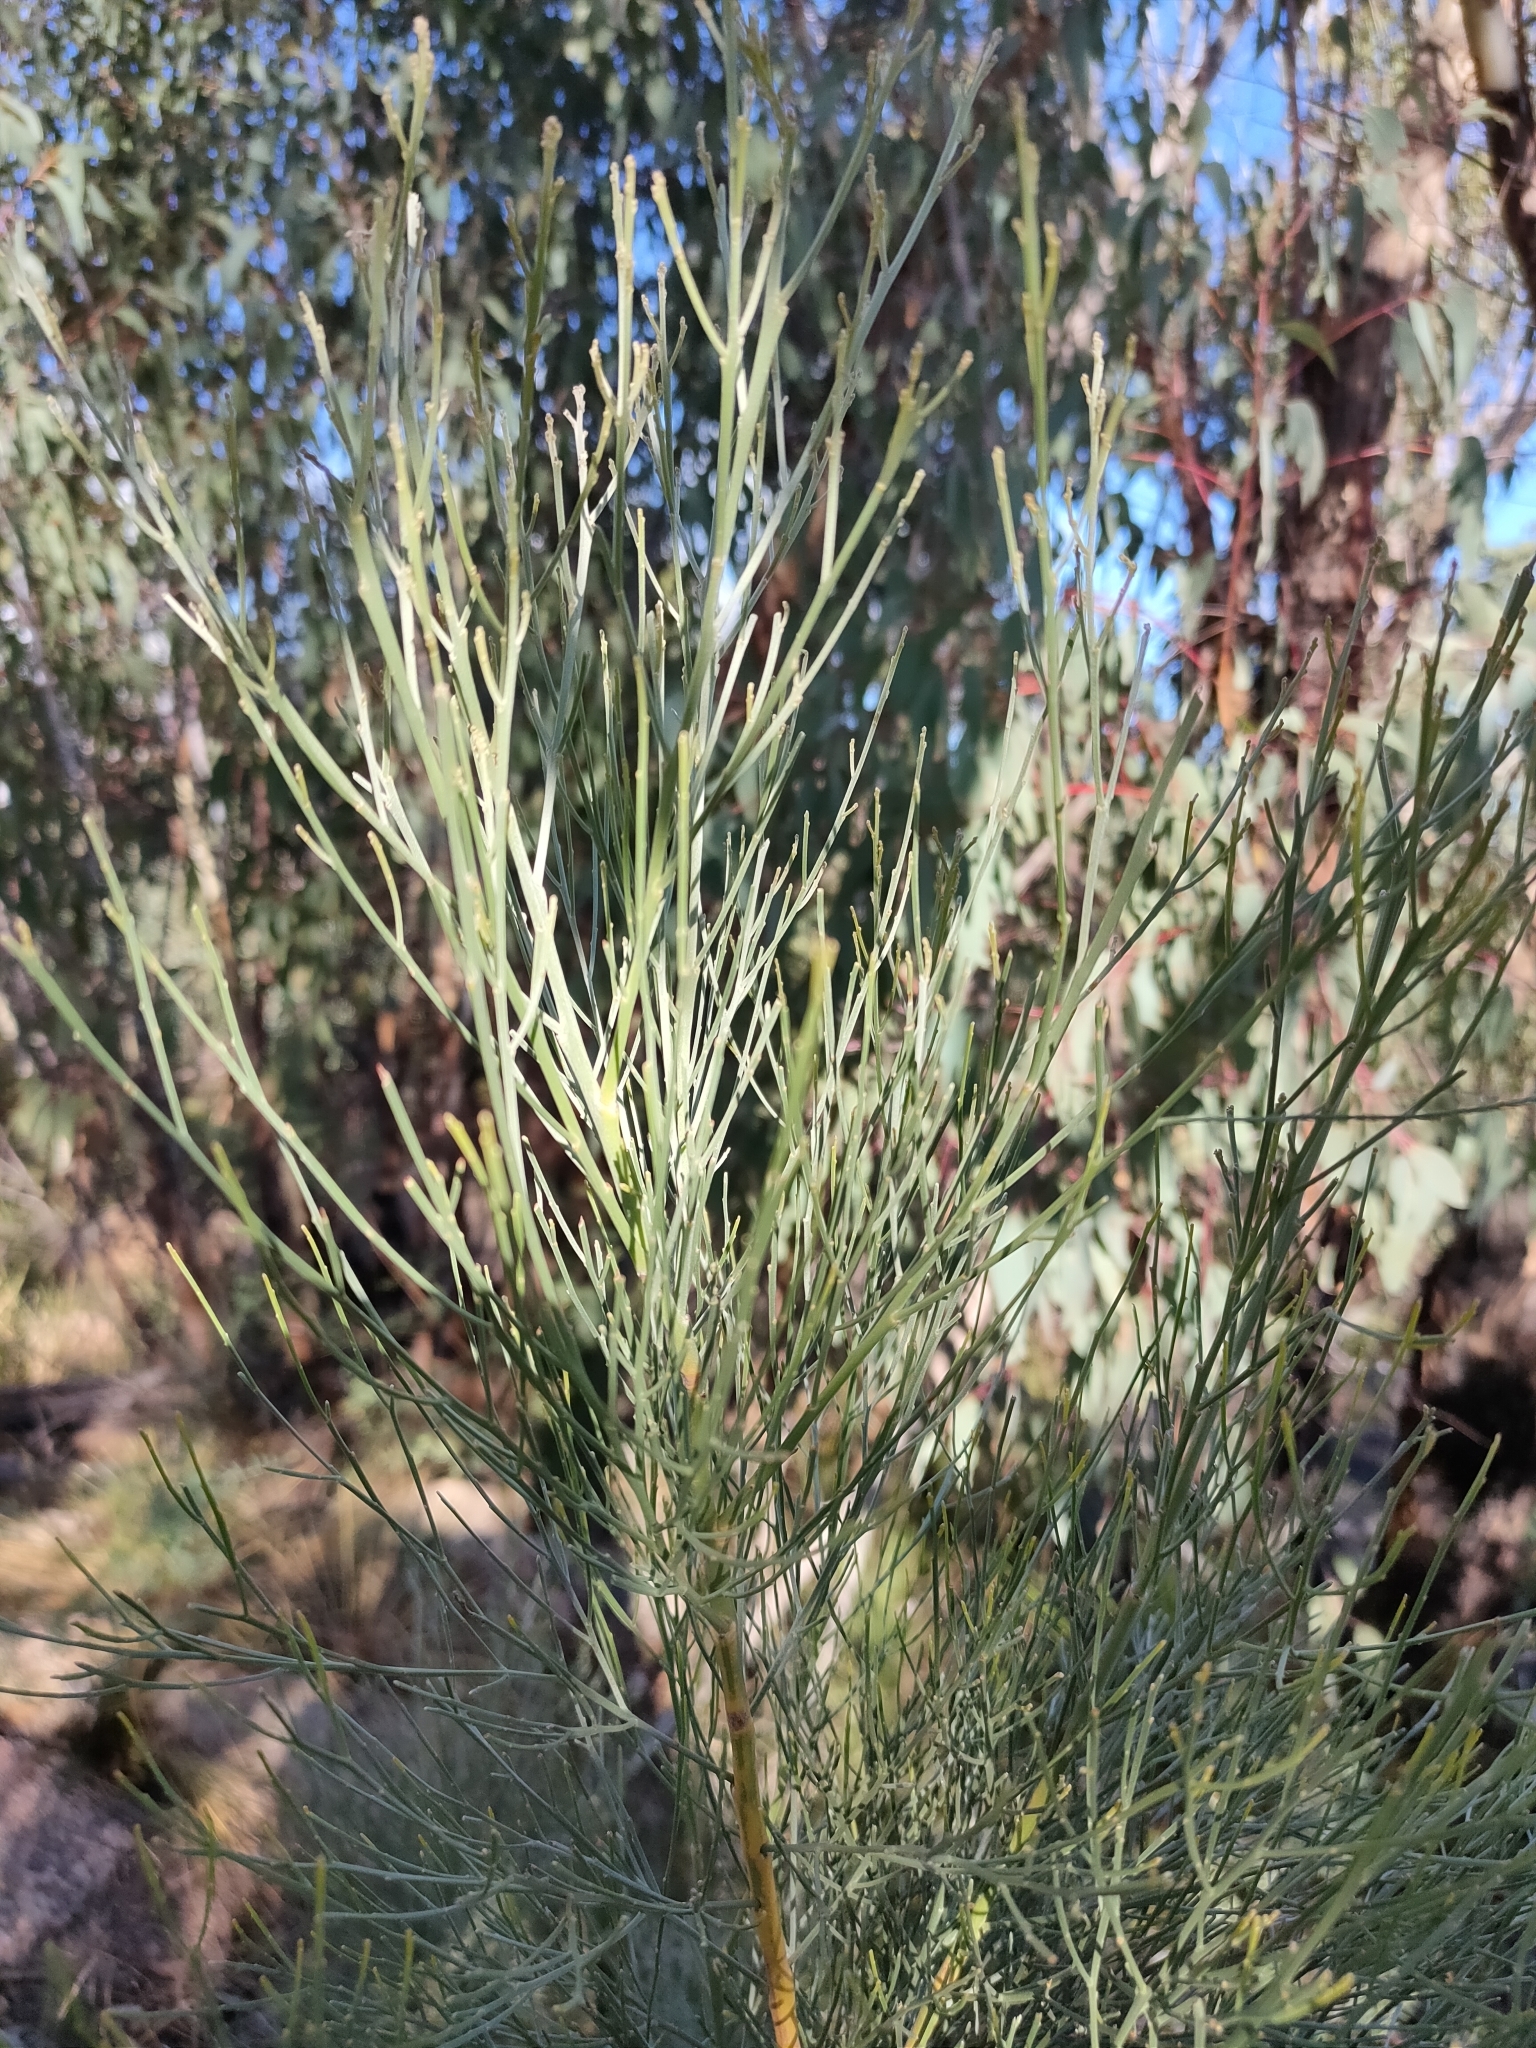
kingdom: Plantae
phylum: Tracheophyta
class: Magnoliopsida
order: Fabales
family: Fabaceae
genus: Jacksonia
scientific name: Jacksonia scoparia
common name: Dogwood
